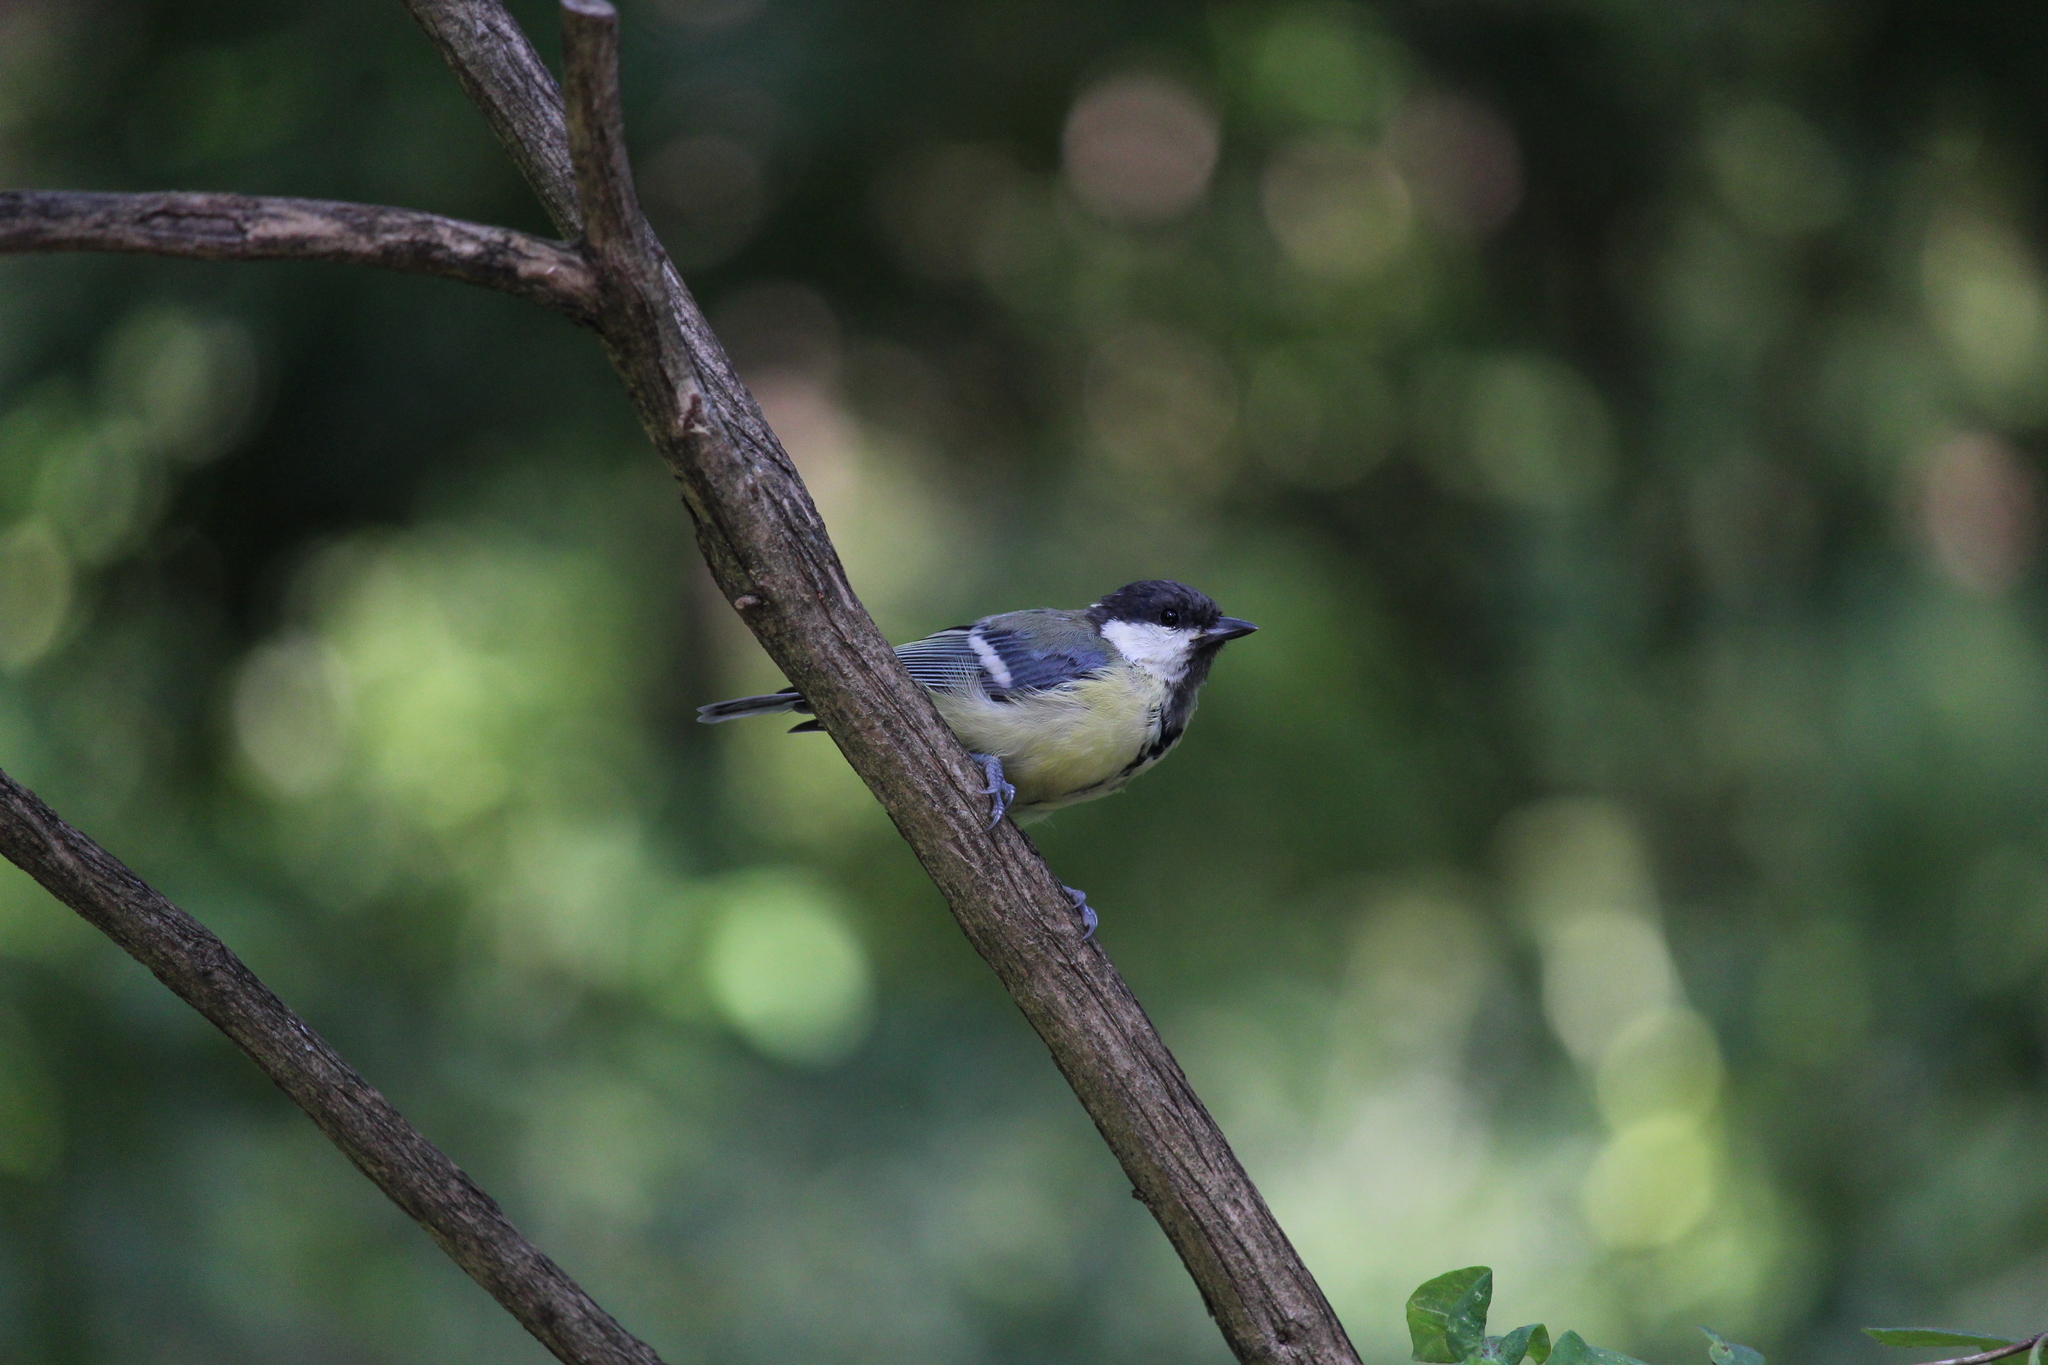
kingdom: Animalia
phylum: Chordata
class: Aves
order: Passeriformes
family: Paridae
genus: Parus
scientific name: Parus major
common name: Great tit
